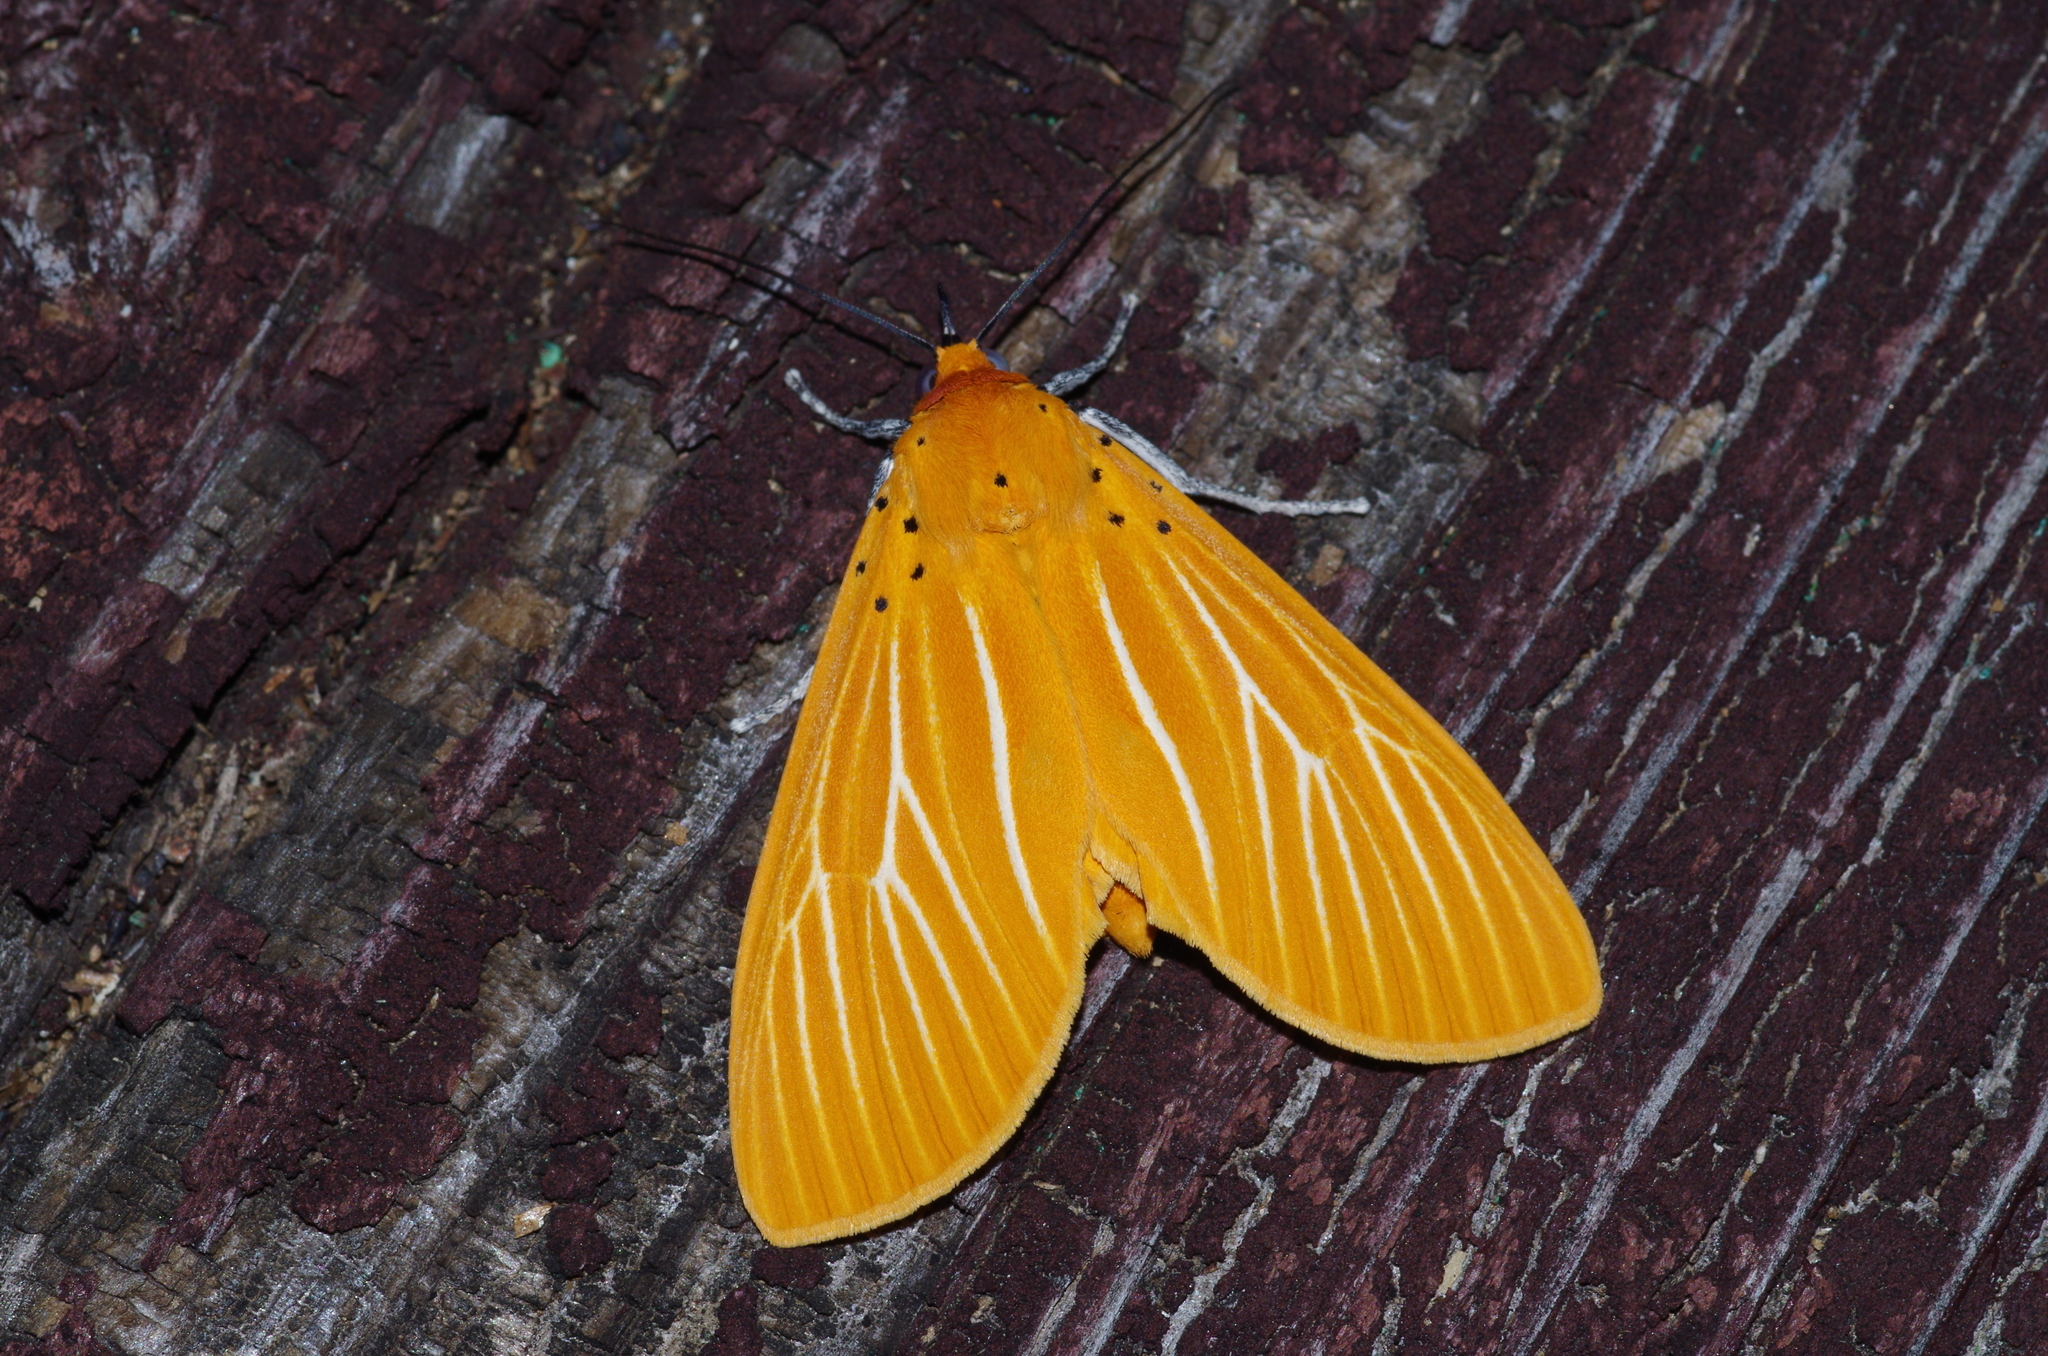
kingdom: Animalia
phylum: Arthropoda
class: Insecta
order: Lepidoptera
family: Erebidae
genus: Asota
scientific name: Asota egens
